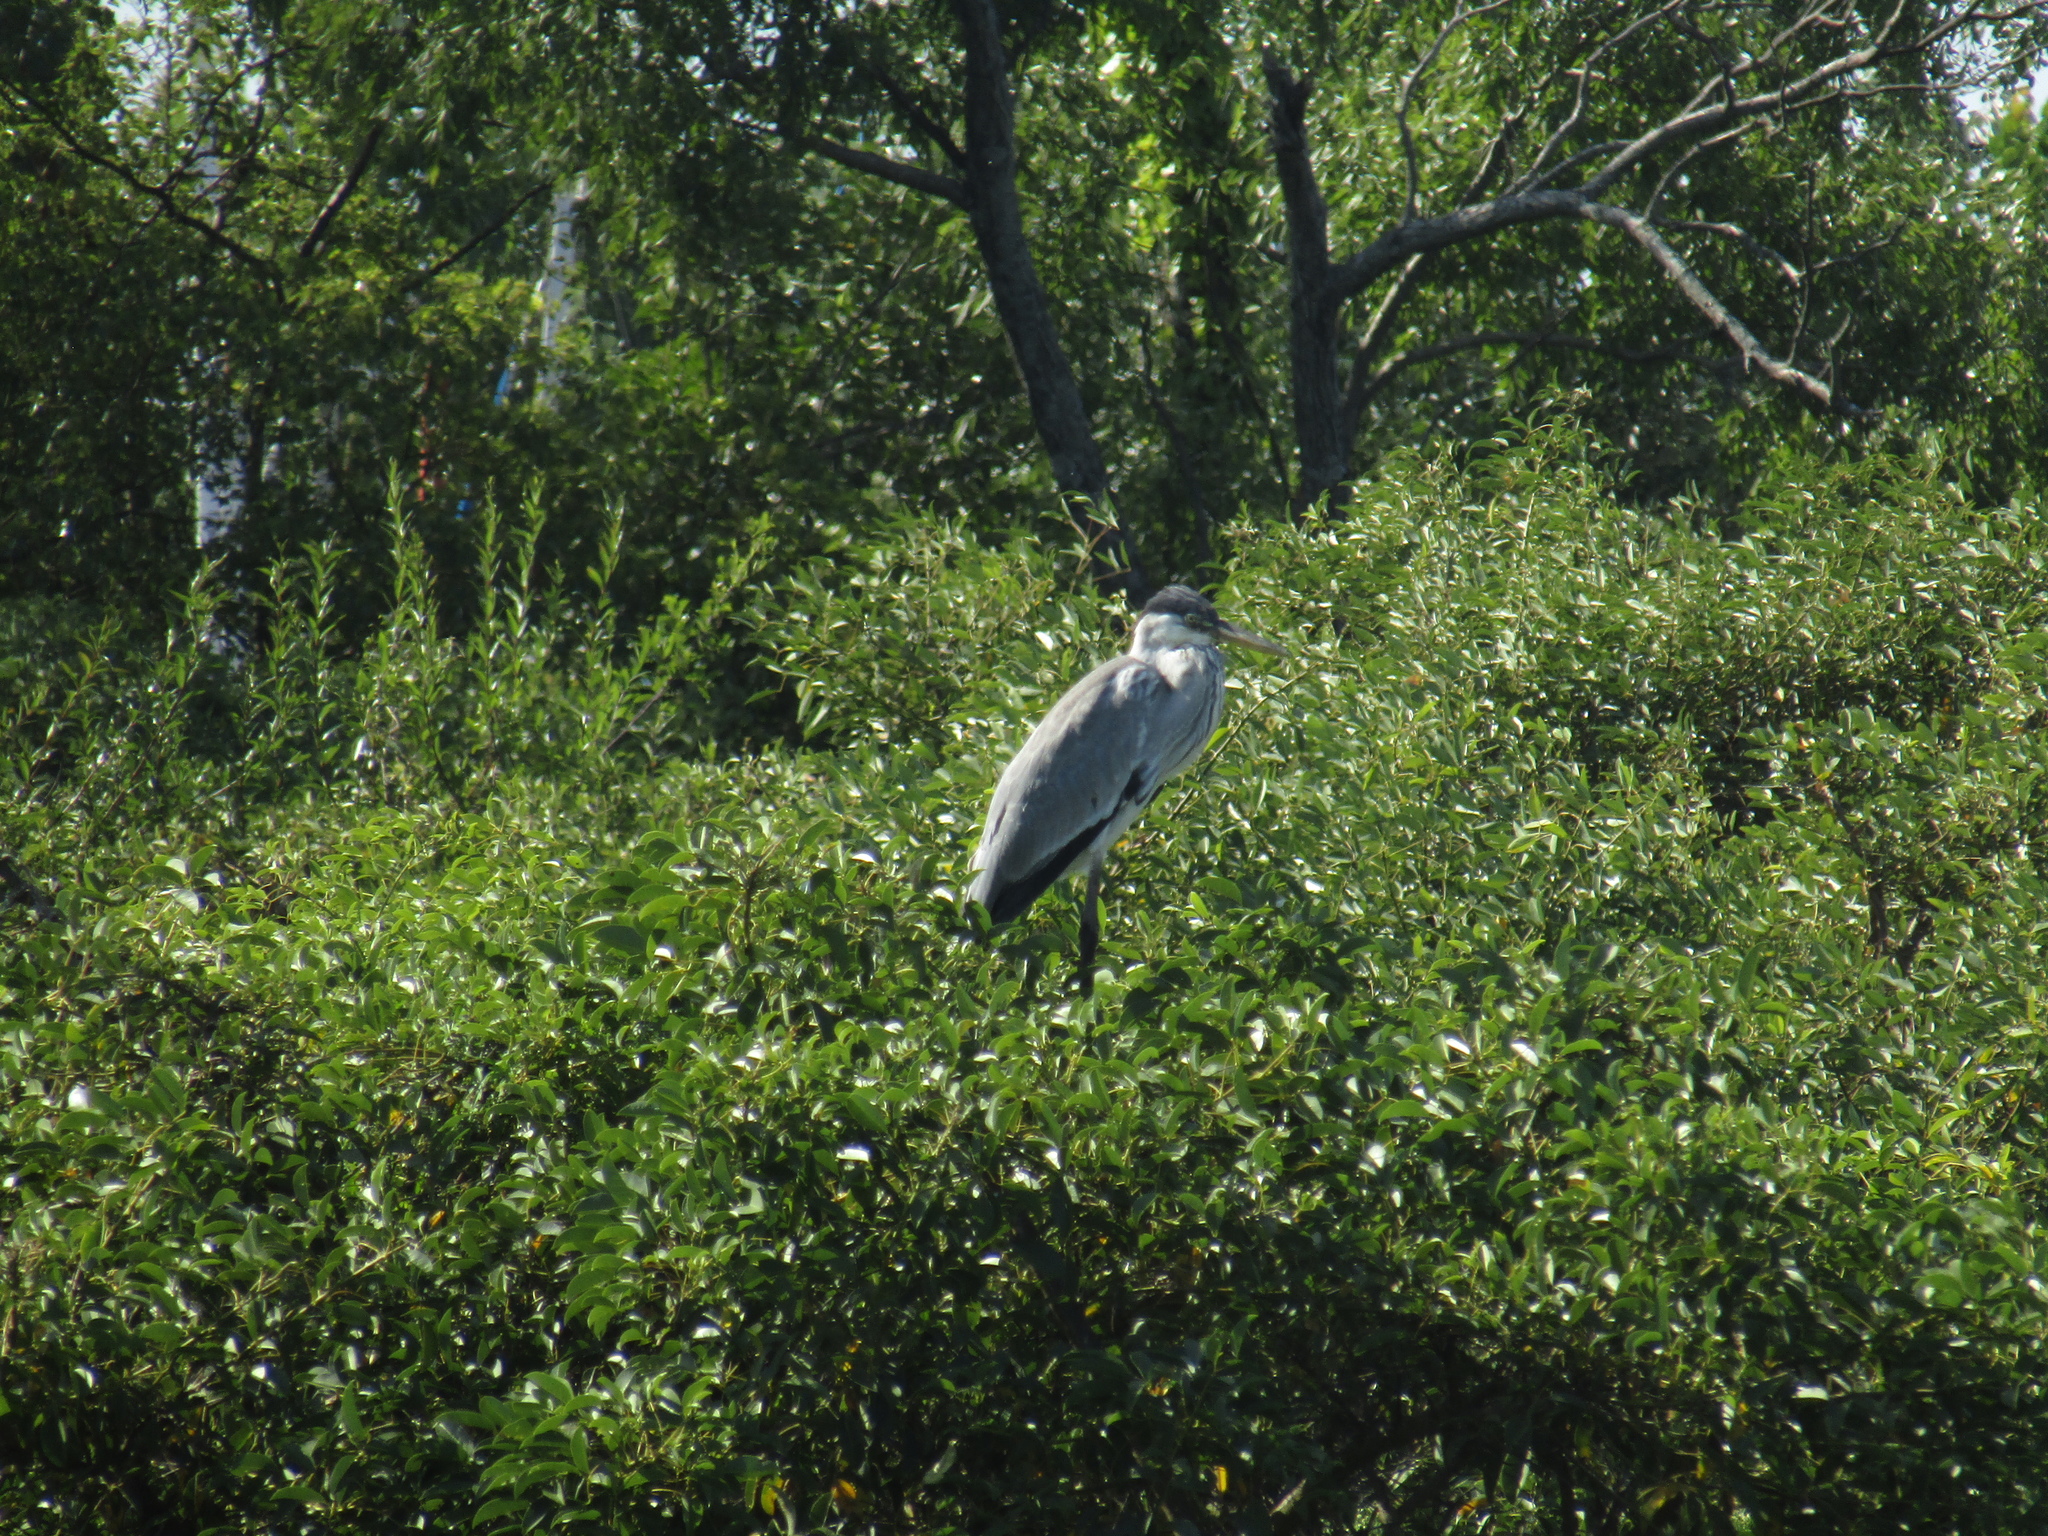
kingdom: Animalia
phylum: Chordata
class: Aves
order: Pelecaniformes
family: Ardeidae
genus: Ardea
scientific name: Ardea cocoi
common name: Cocoi heron
